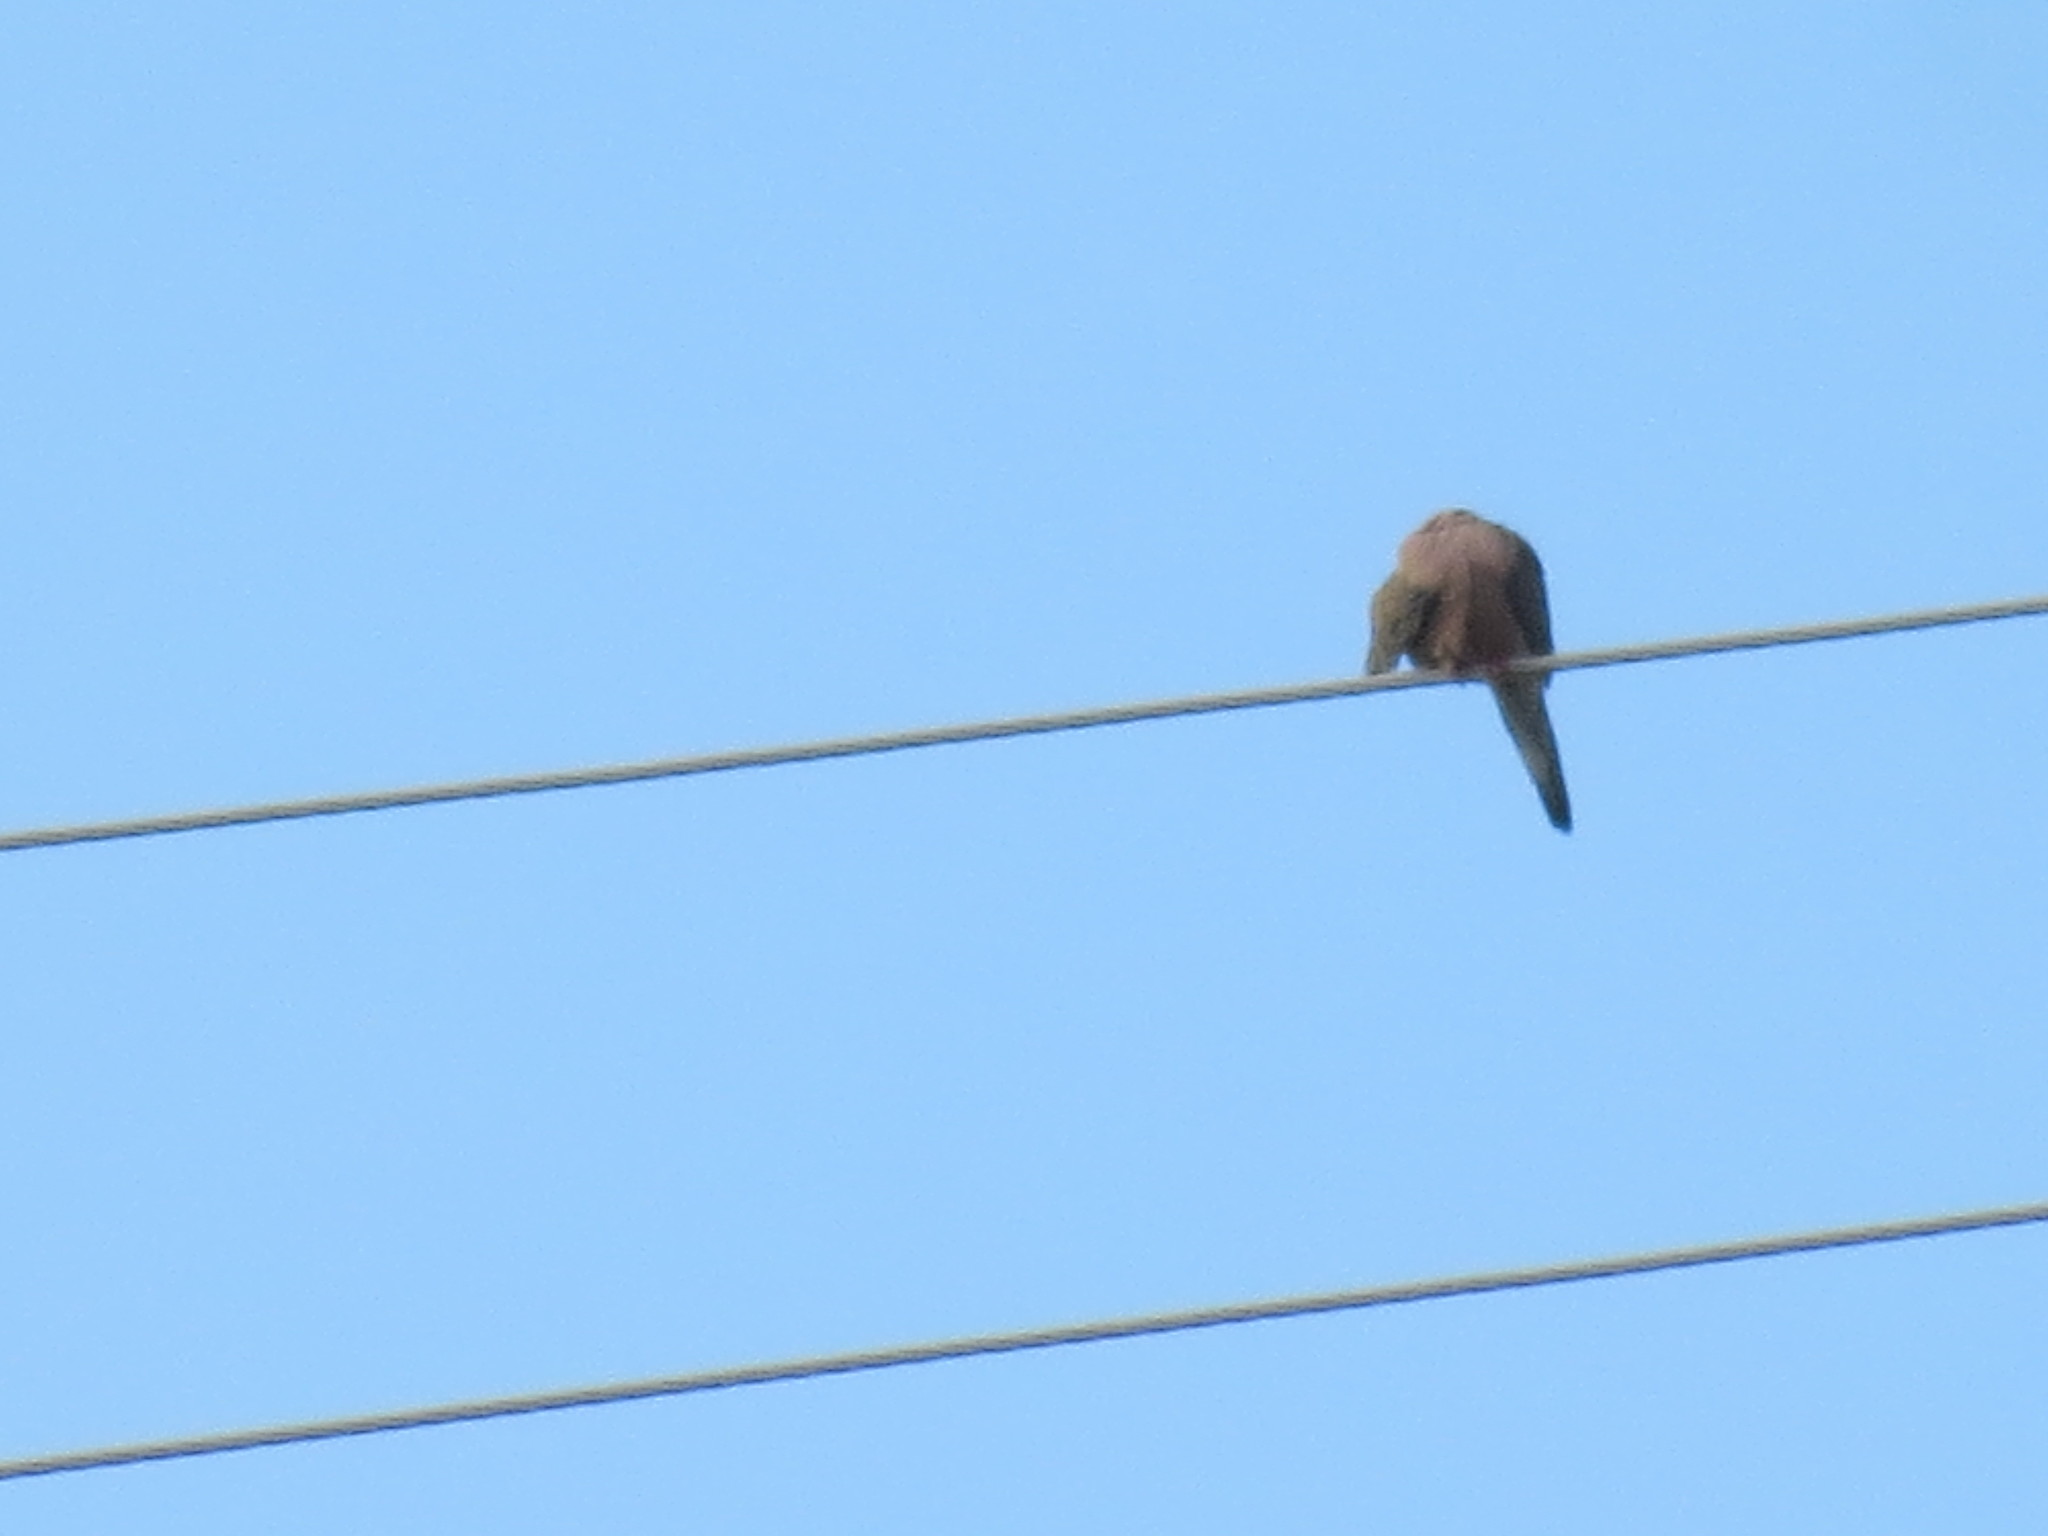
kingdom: Animalia
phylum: Chordata
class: Aves
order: Columbiformes
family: Columbidae
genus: Zenaida
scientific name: Zenaida macroura
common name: Mourning dove
